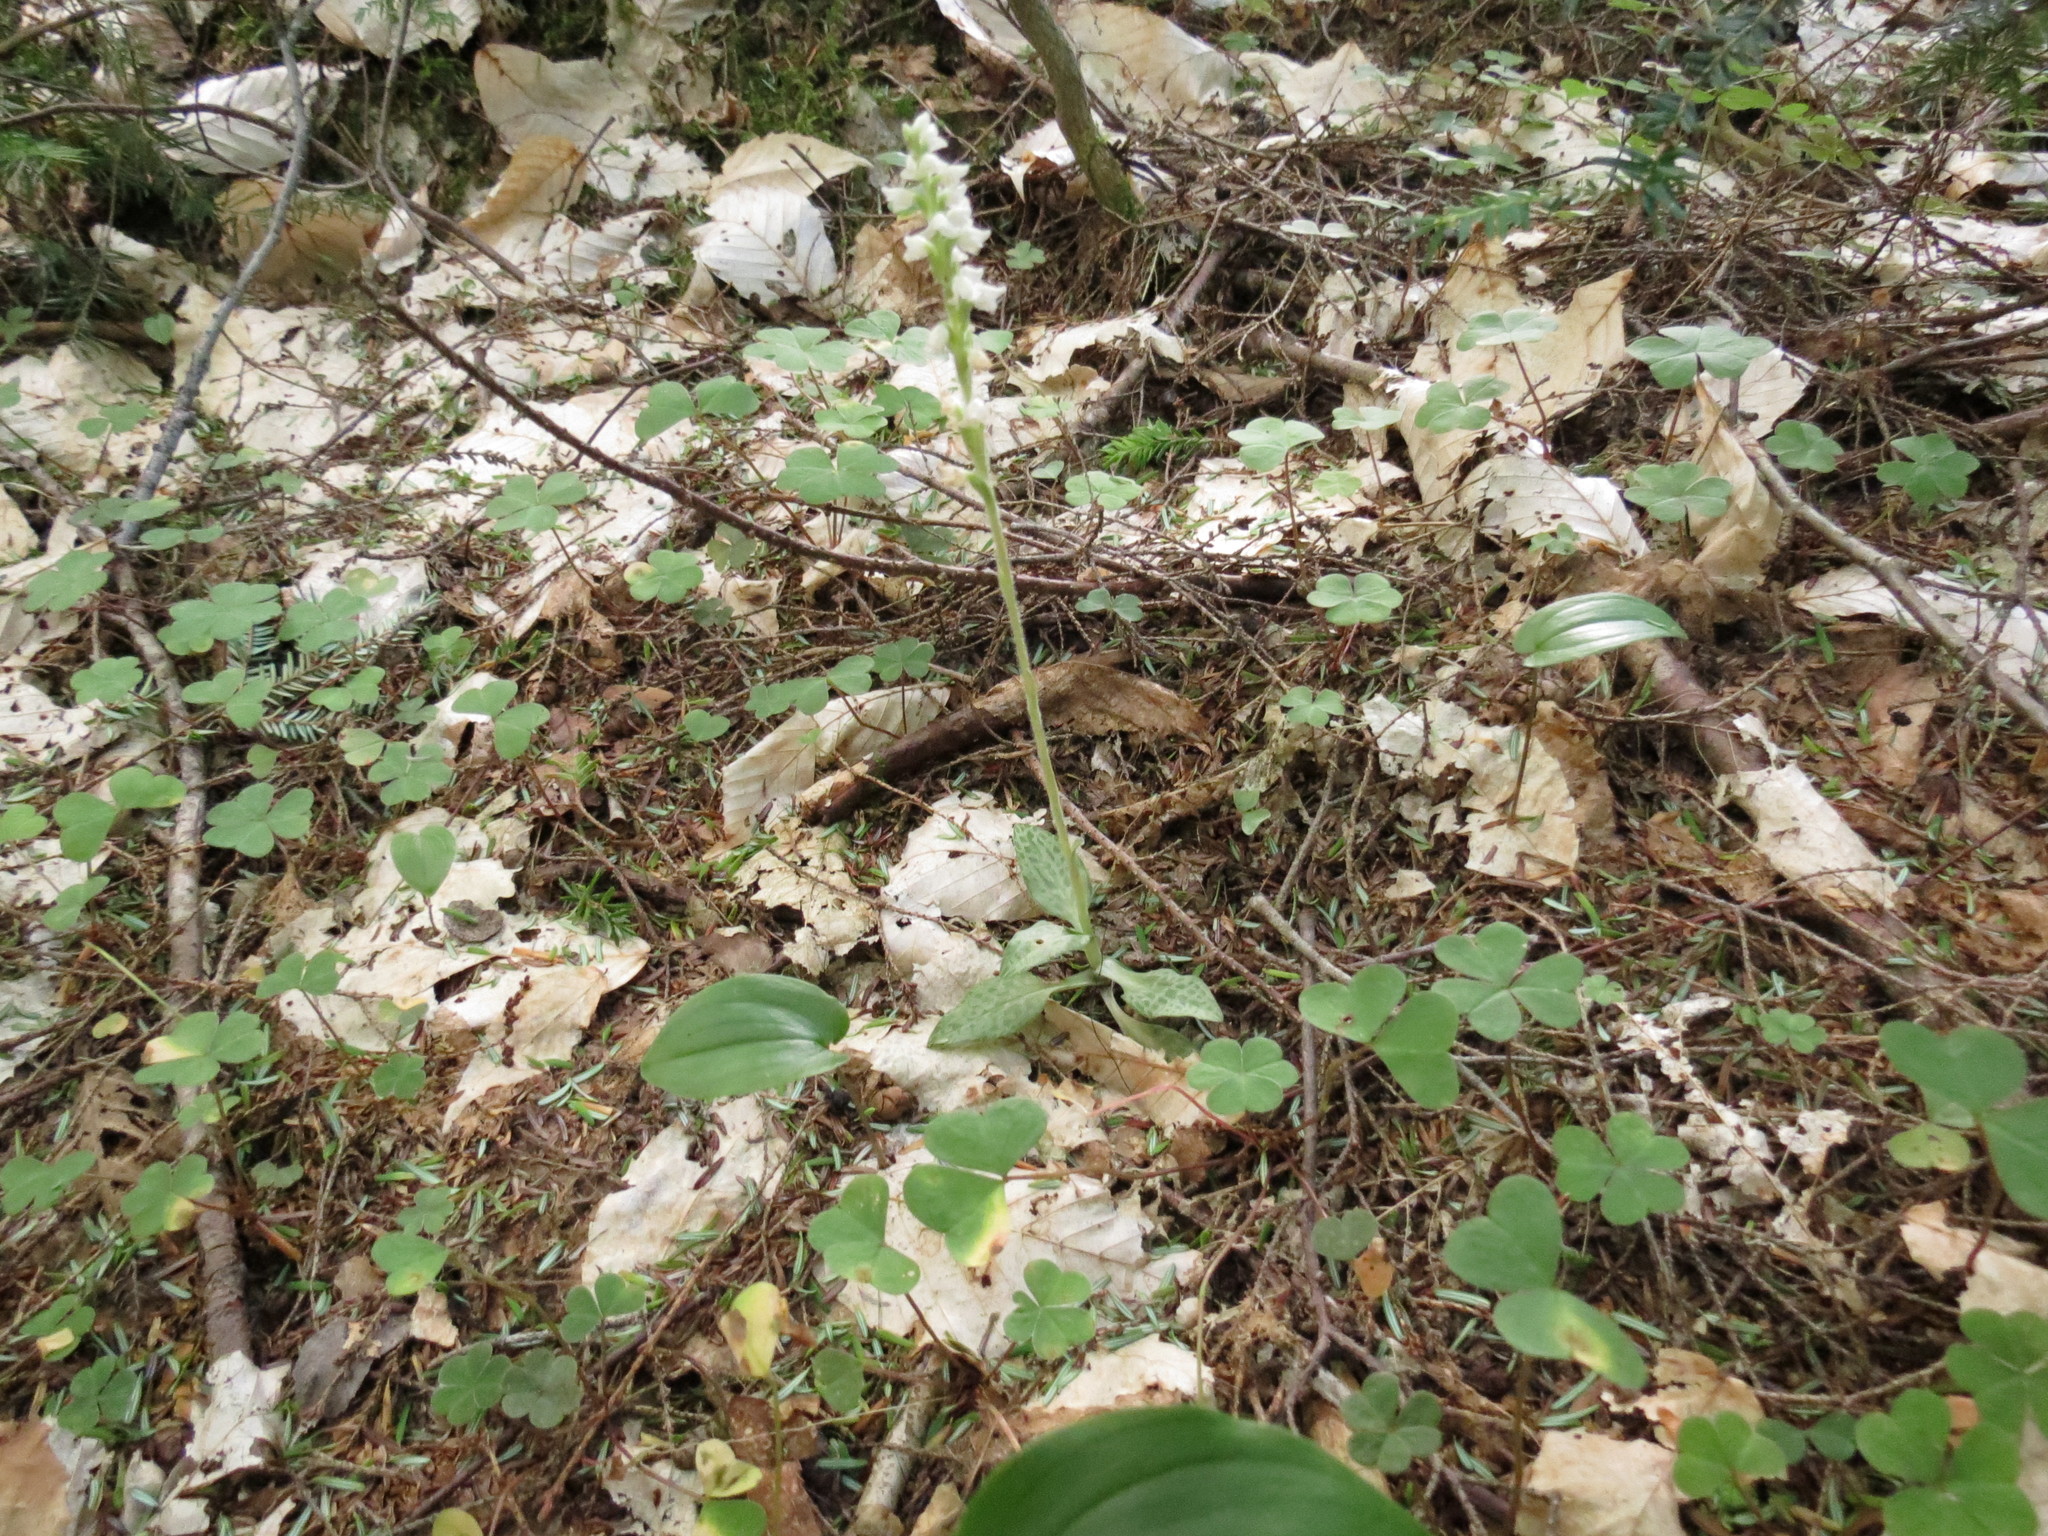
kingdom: Plantae
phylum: Tracheophyta
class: Liliopsida
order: Asparagales
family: Orchidaceae
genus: Goodyera
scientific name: Goodyera tesselata
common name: Checkered rattlesnake-plantain
